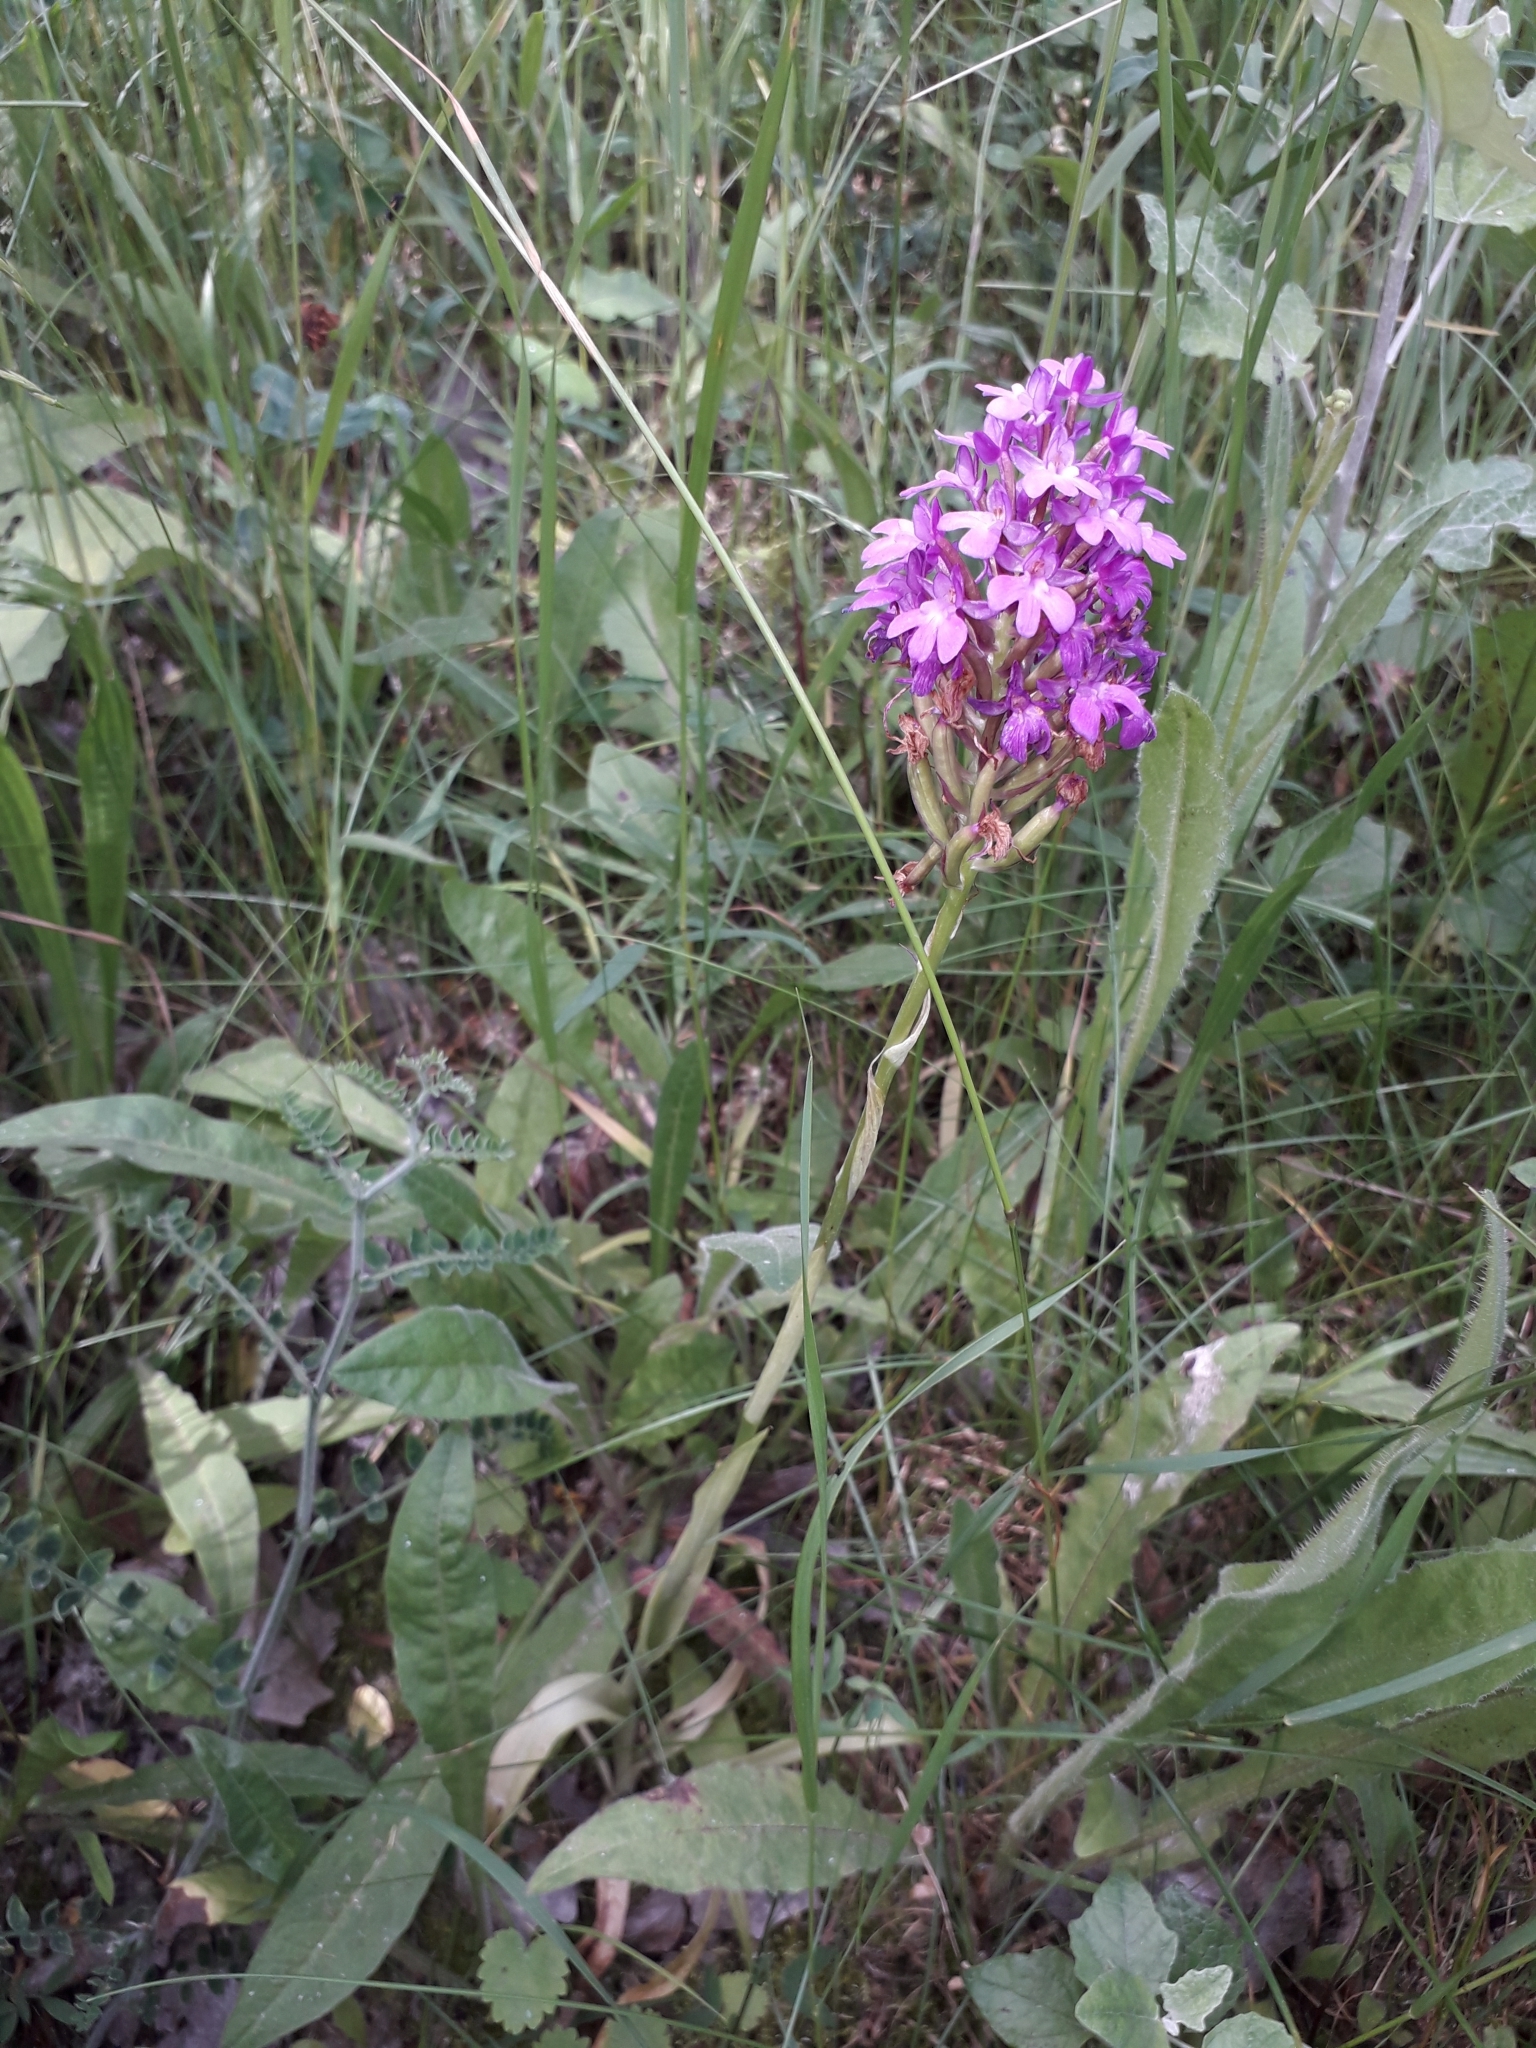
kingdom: Plantae
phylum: Tracheophyta
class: Liliopsida
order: Asparagales
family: Orchidaceae
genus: Anacamptis
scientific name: Anacamptis pyramidalis
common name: Pyramidal orchid
